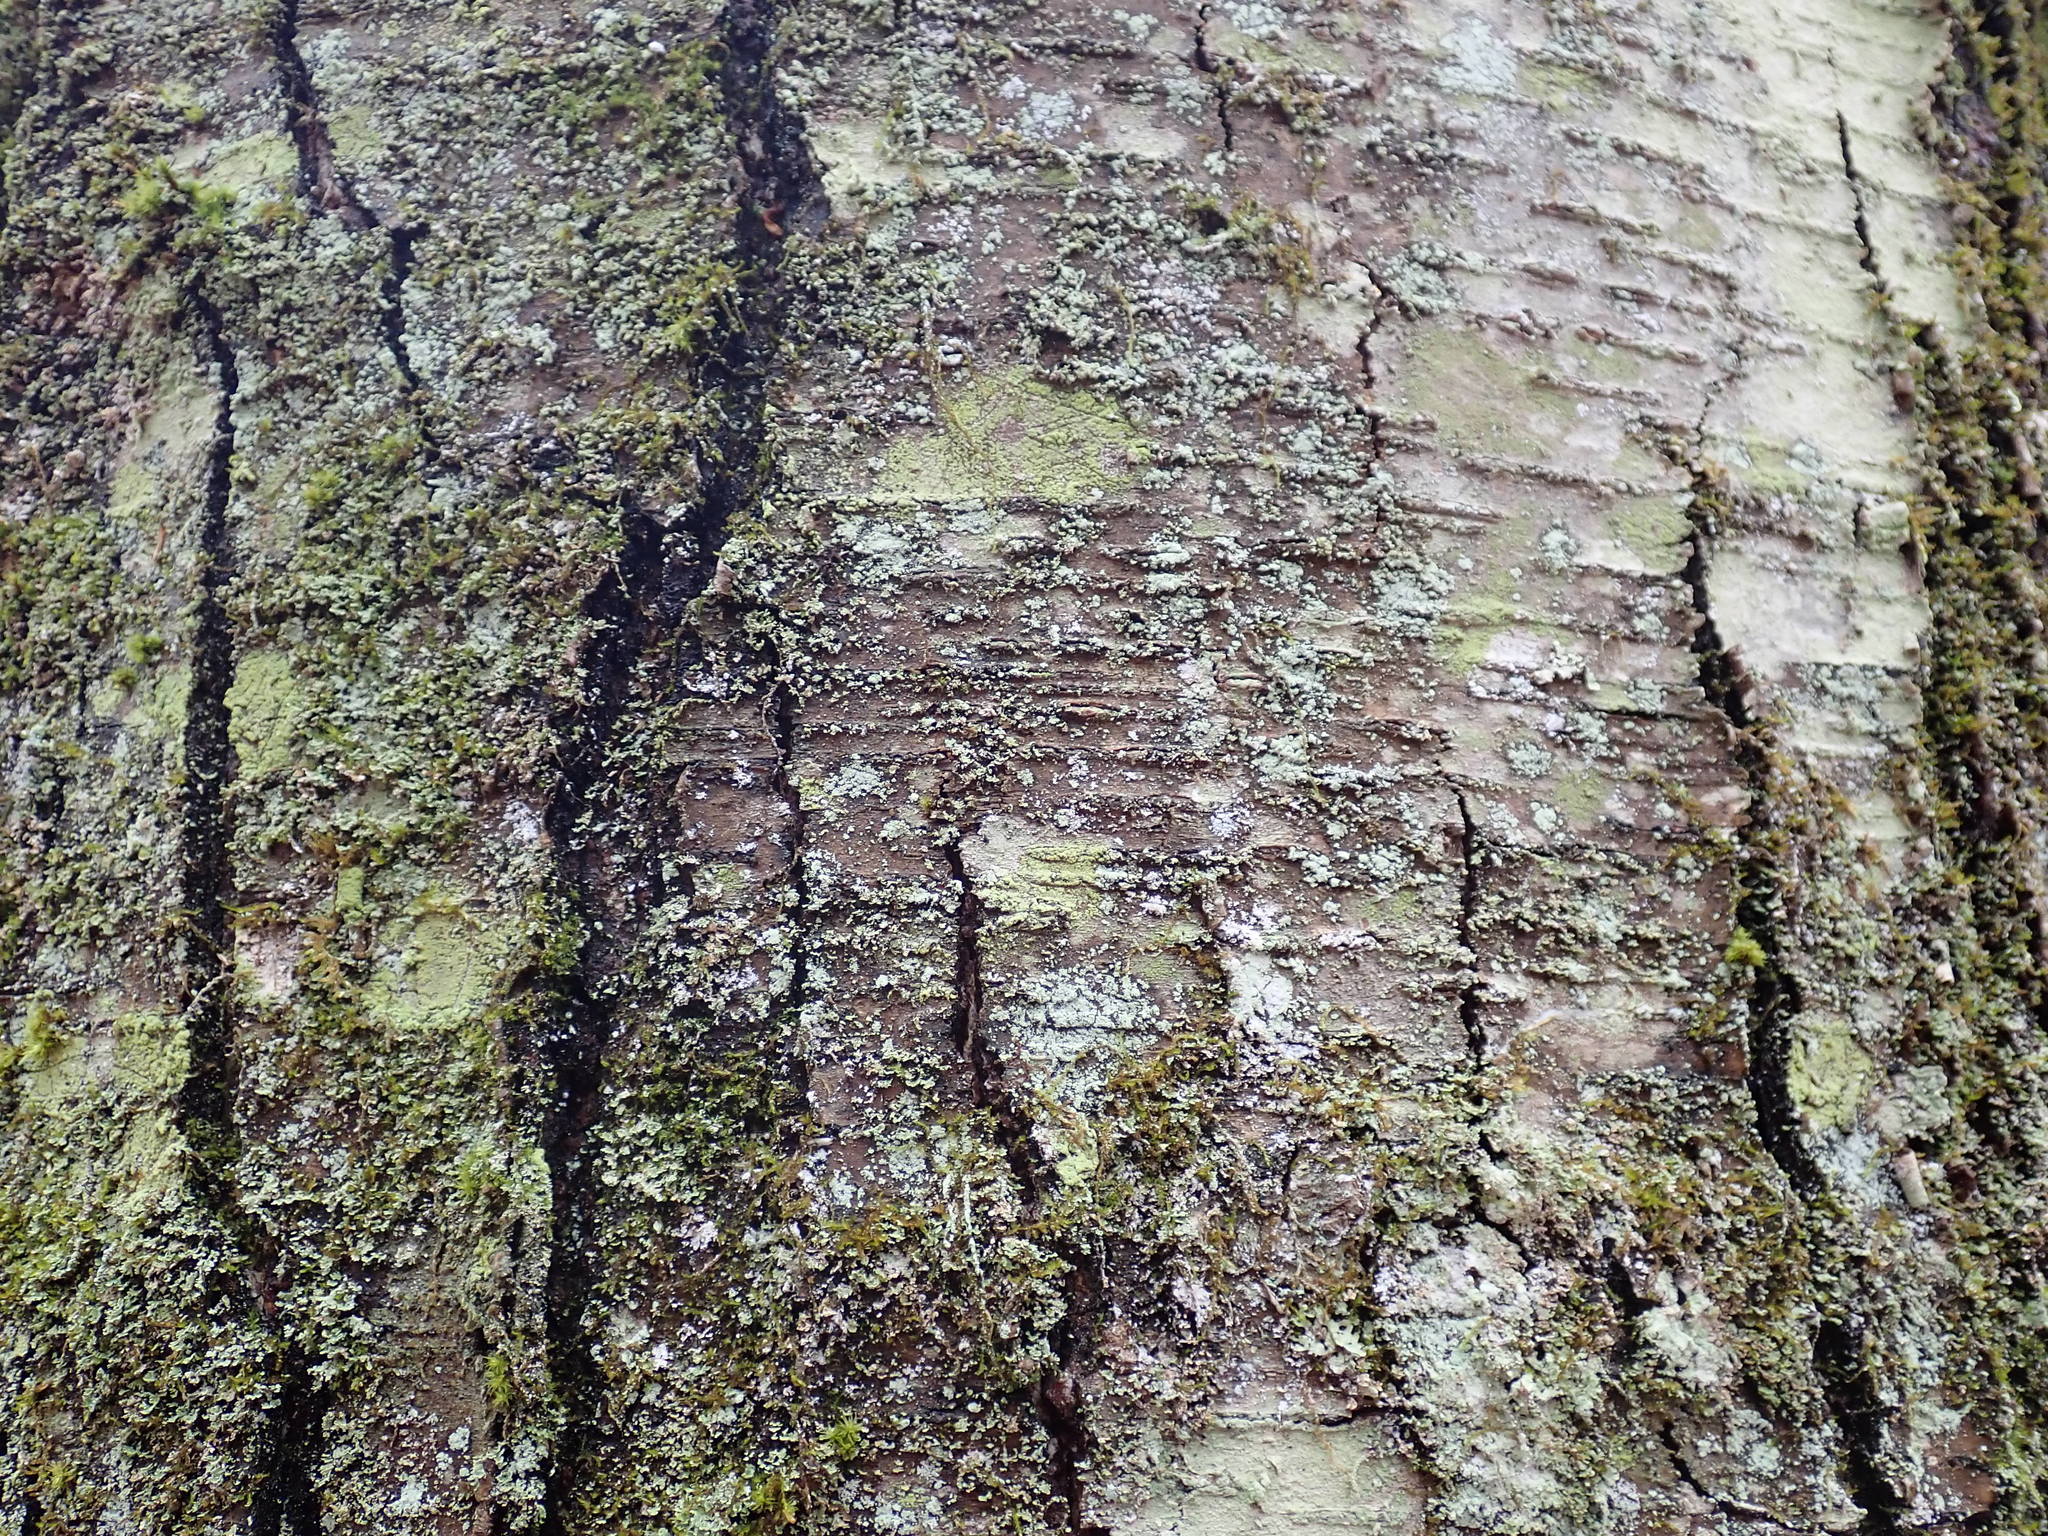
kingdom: Plantae
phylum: Tracheophyta
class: Magnoliopsida
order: Fagales
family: Betulaceae
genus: Betula
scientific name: Betula lenta
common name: Black birch
